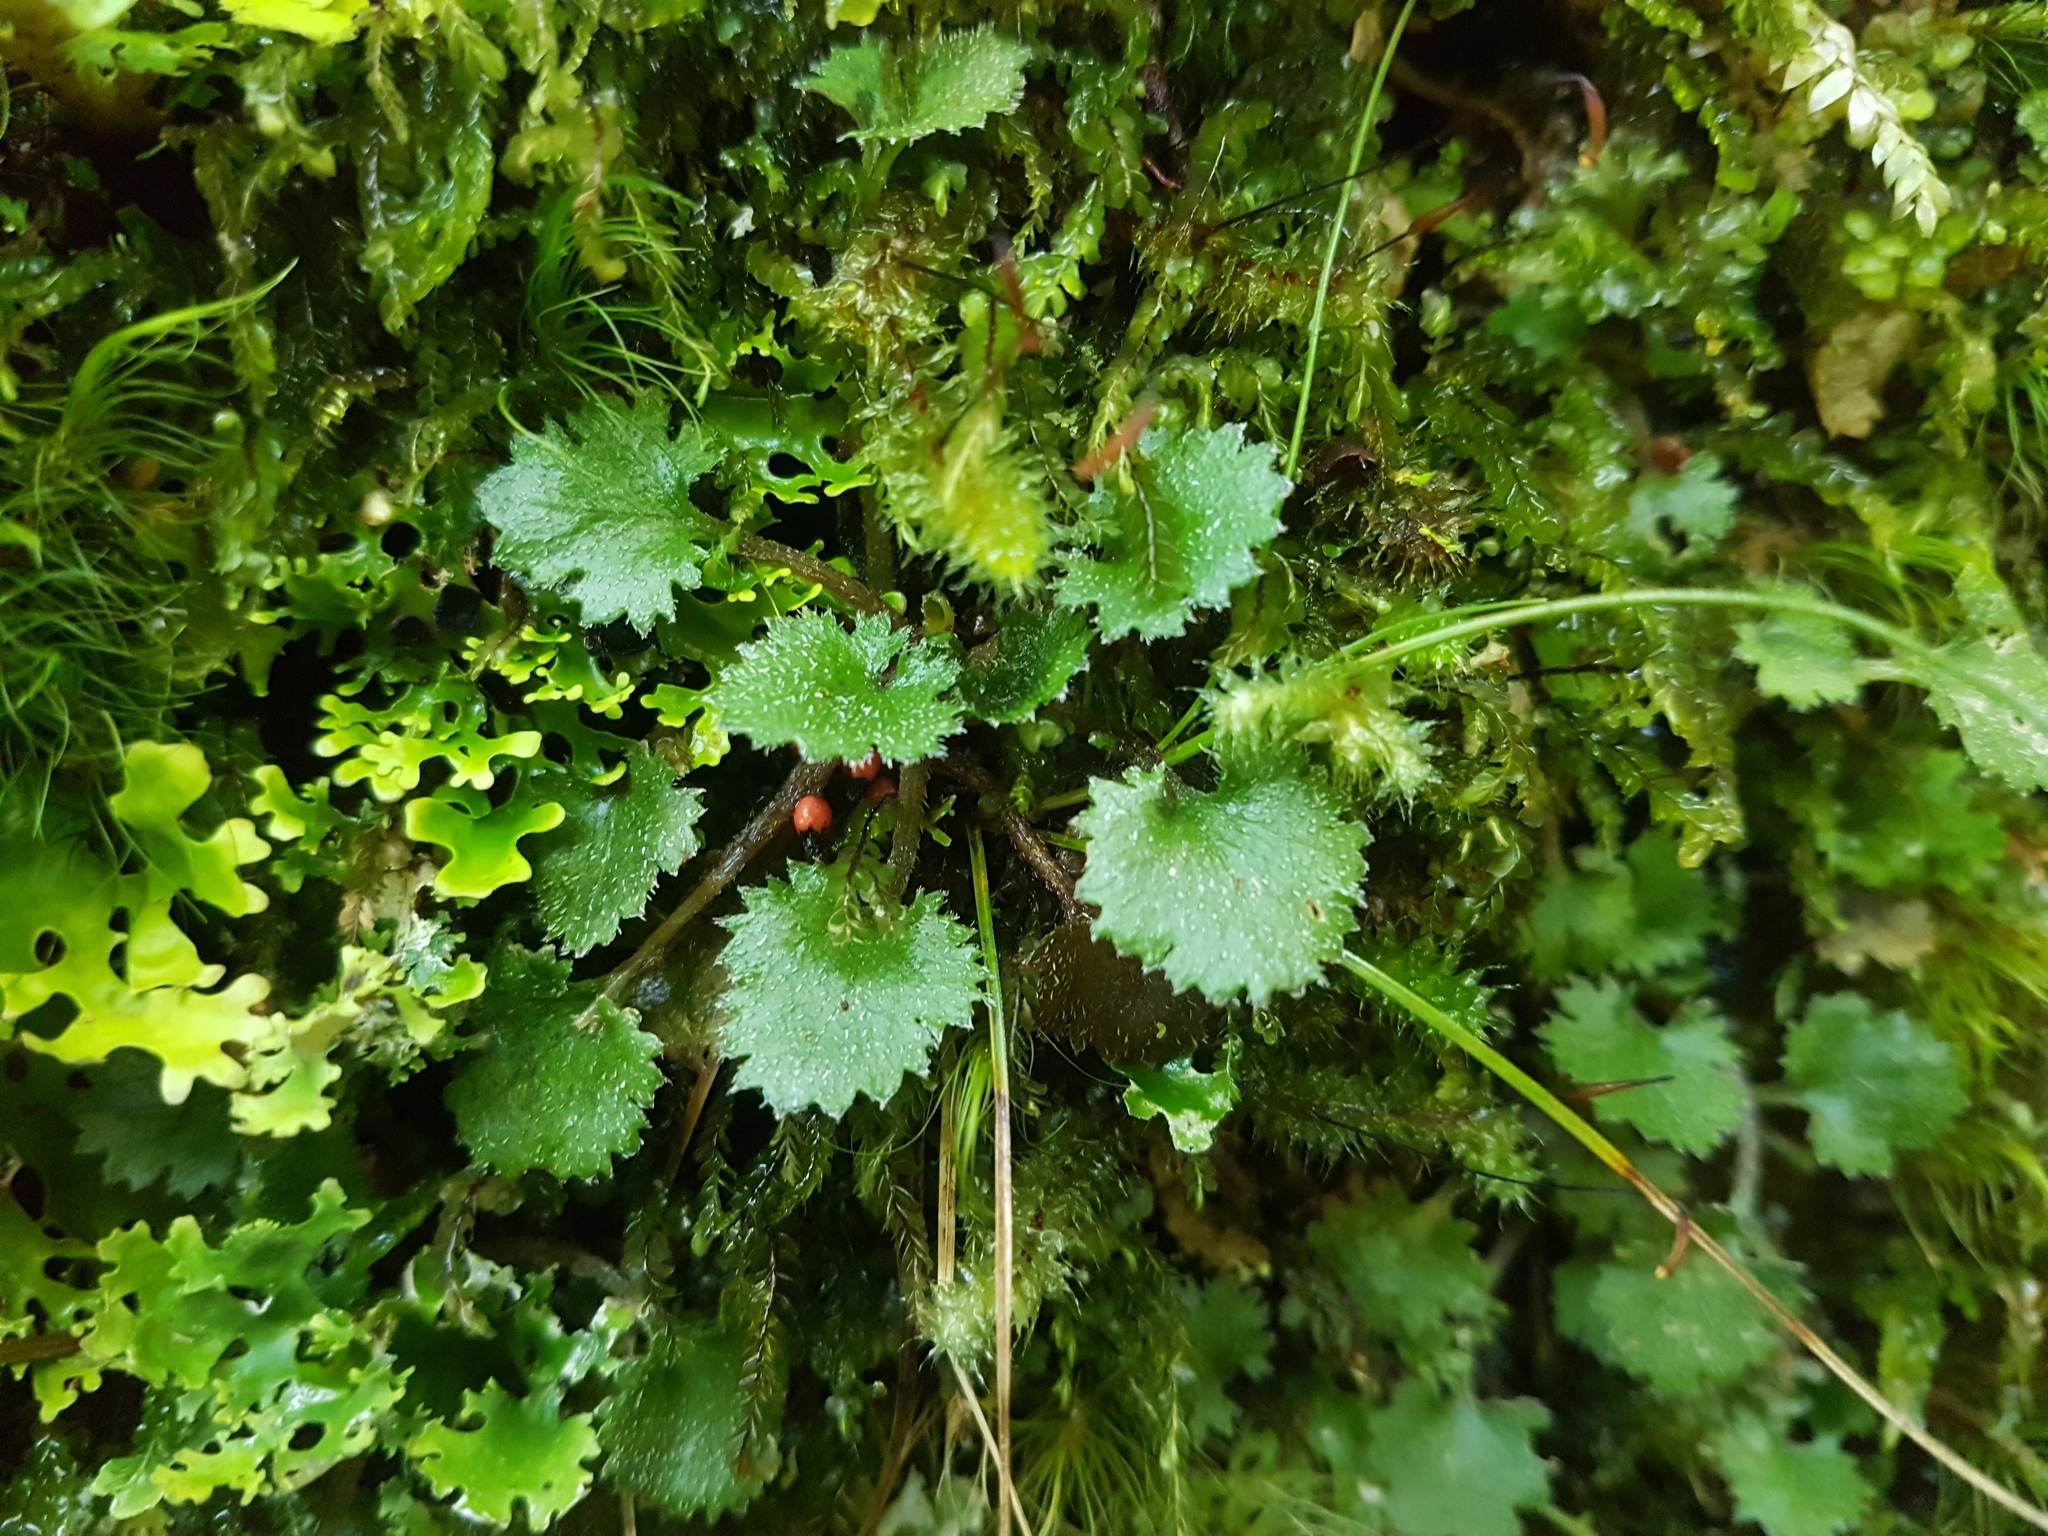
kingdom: Plantae
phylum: Tracheophyta
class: Magnoliopsida
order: Gunnerales
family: Gunneraceae
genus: Gunnera
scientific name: Gunnera monoica
